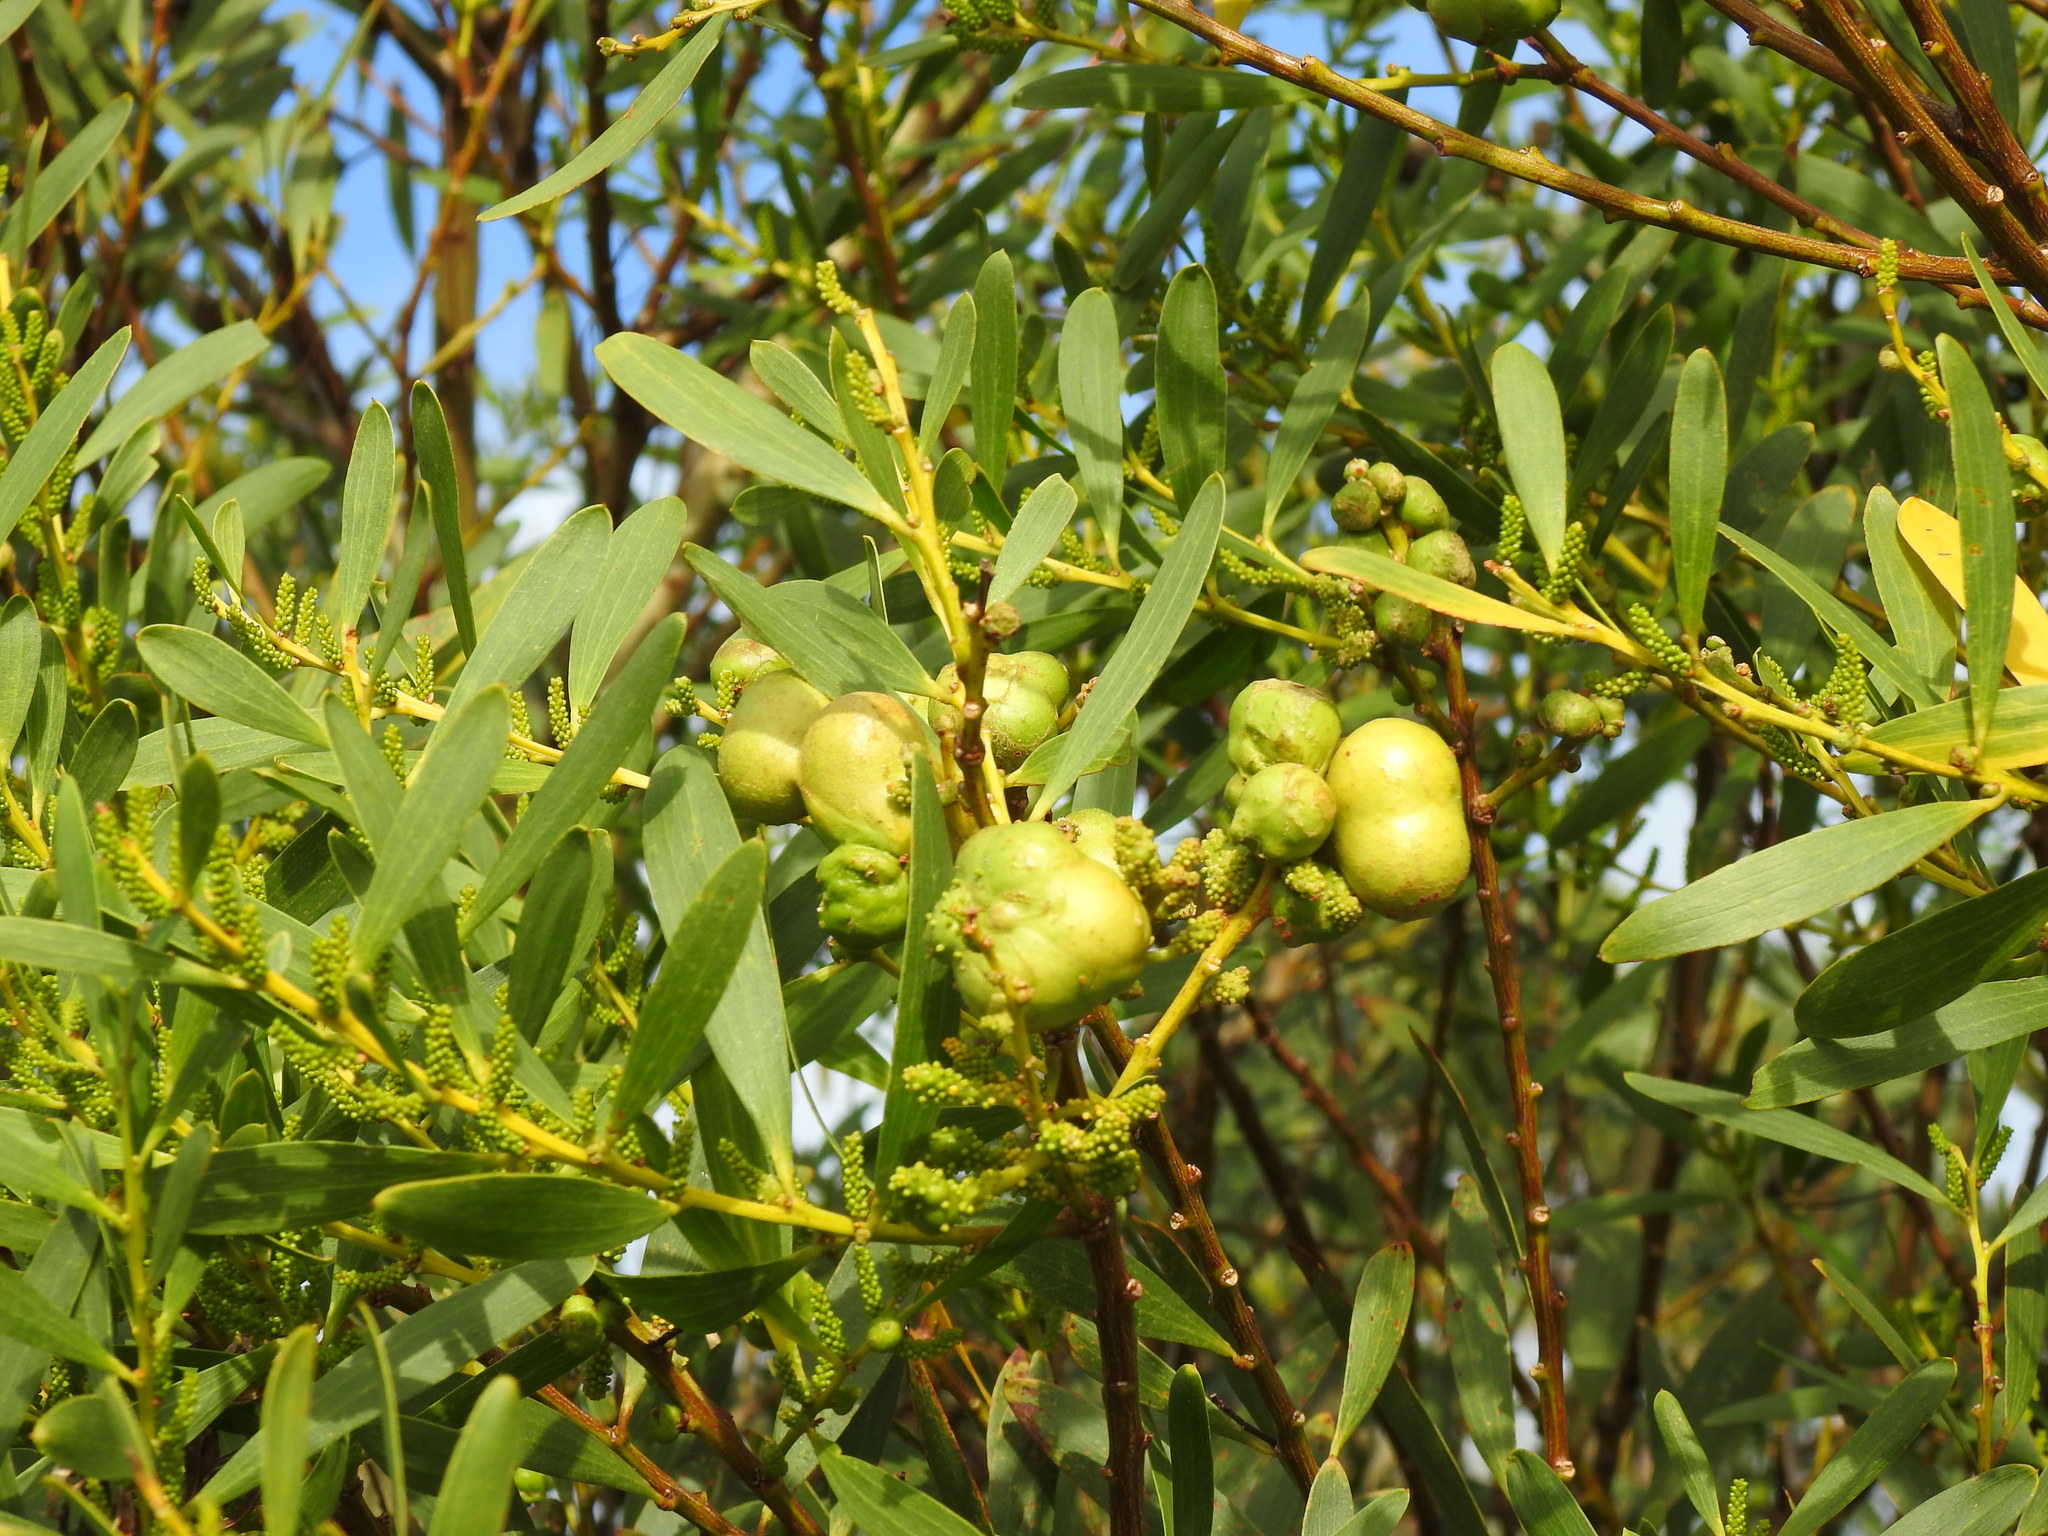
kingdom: Animalia
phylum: Arthropoda
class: Insecta
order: Hymenoptera
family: Pteromalidae
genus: Trichilogaster
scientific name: Trichilogaster acaciaelongifoliae
